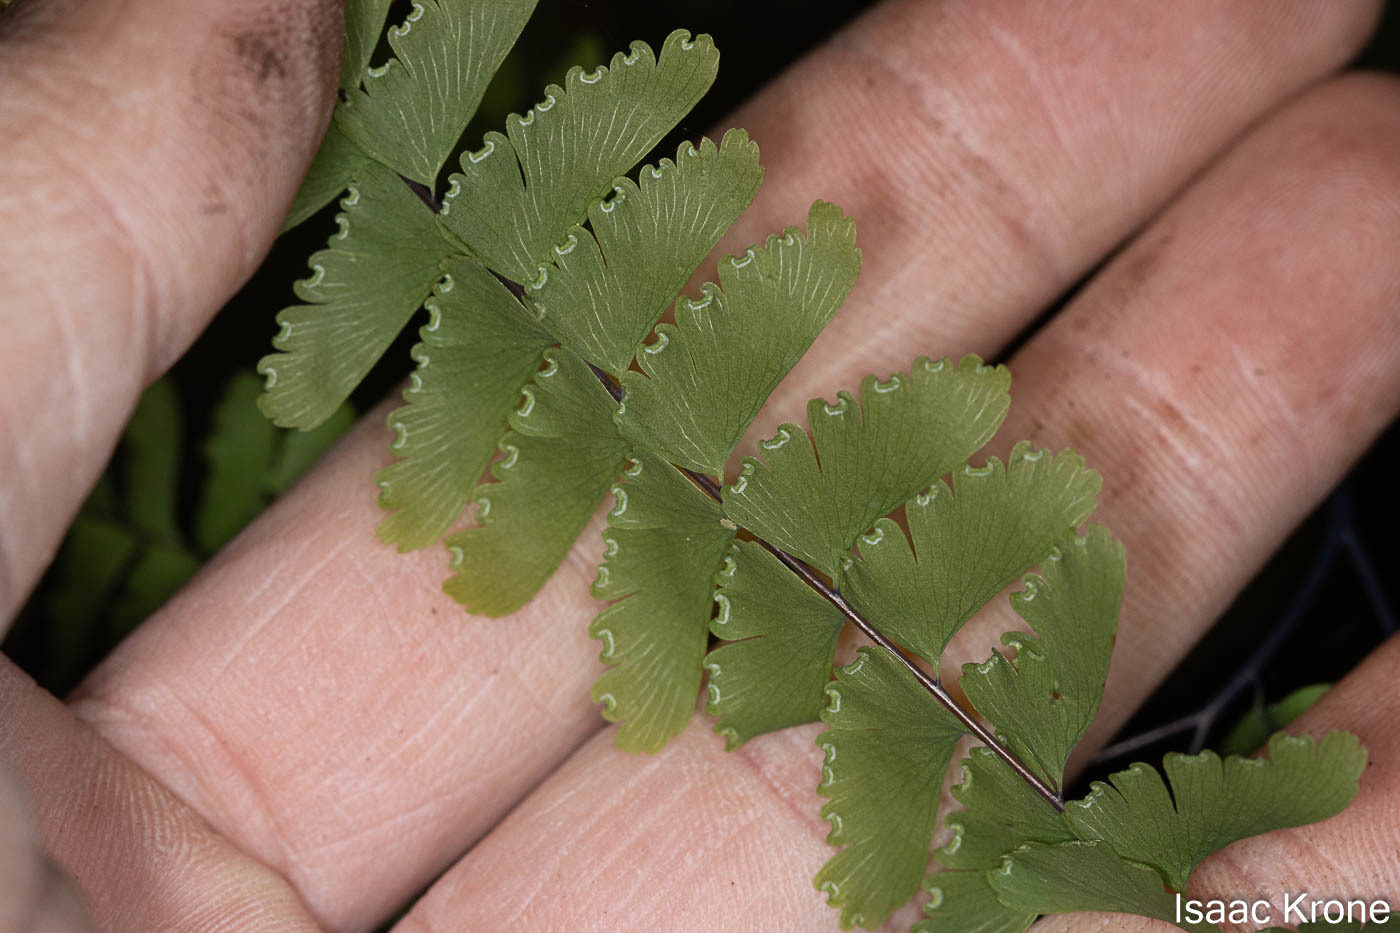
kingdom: Plantae
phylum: Tracheophyta
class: Polypodiopsida
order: Polypodiales
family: Pteridaceae
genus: Adiantum
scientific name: Adiantum aleuticum
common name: Aleutian maidenhair fern
